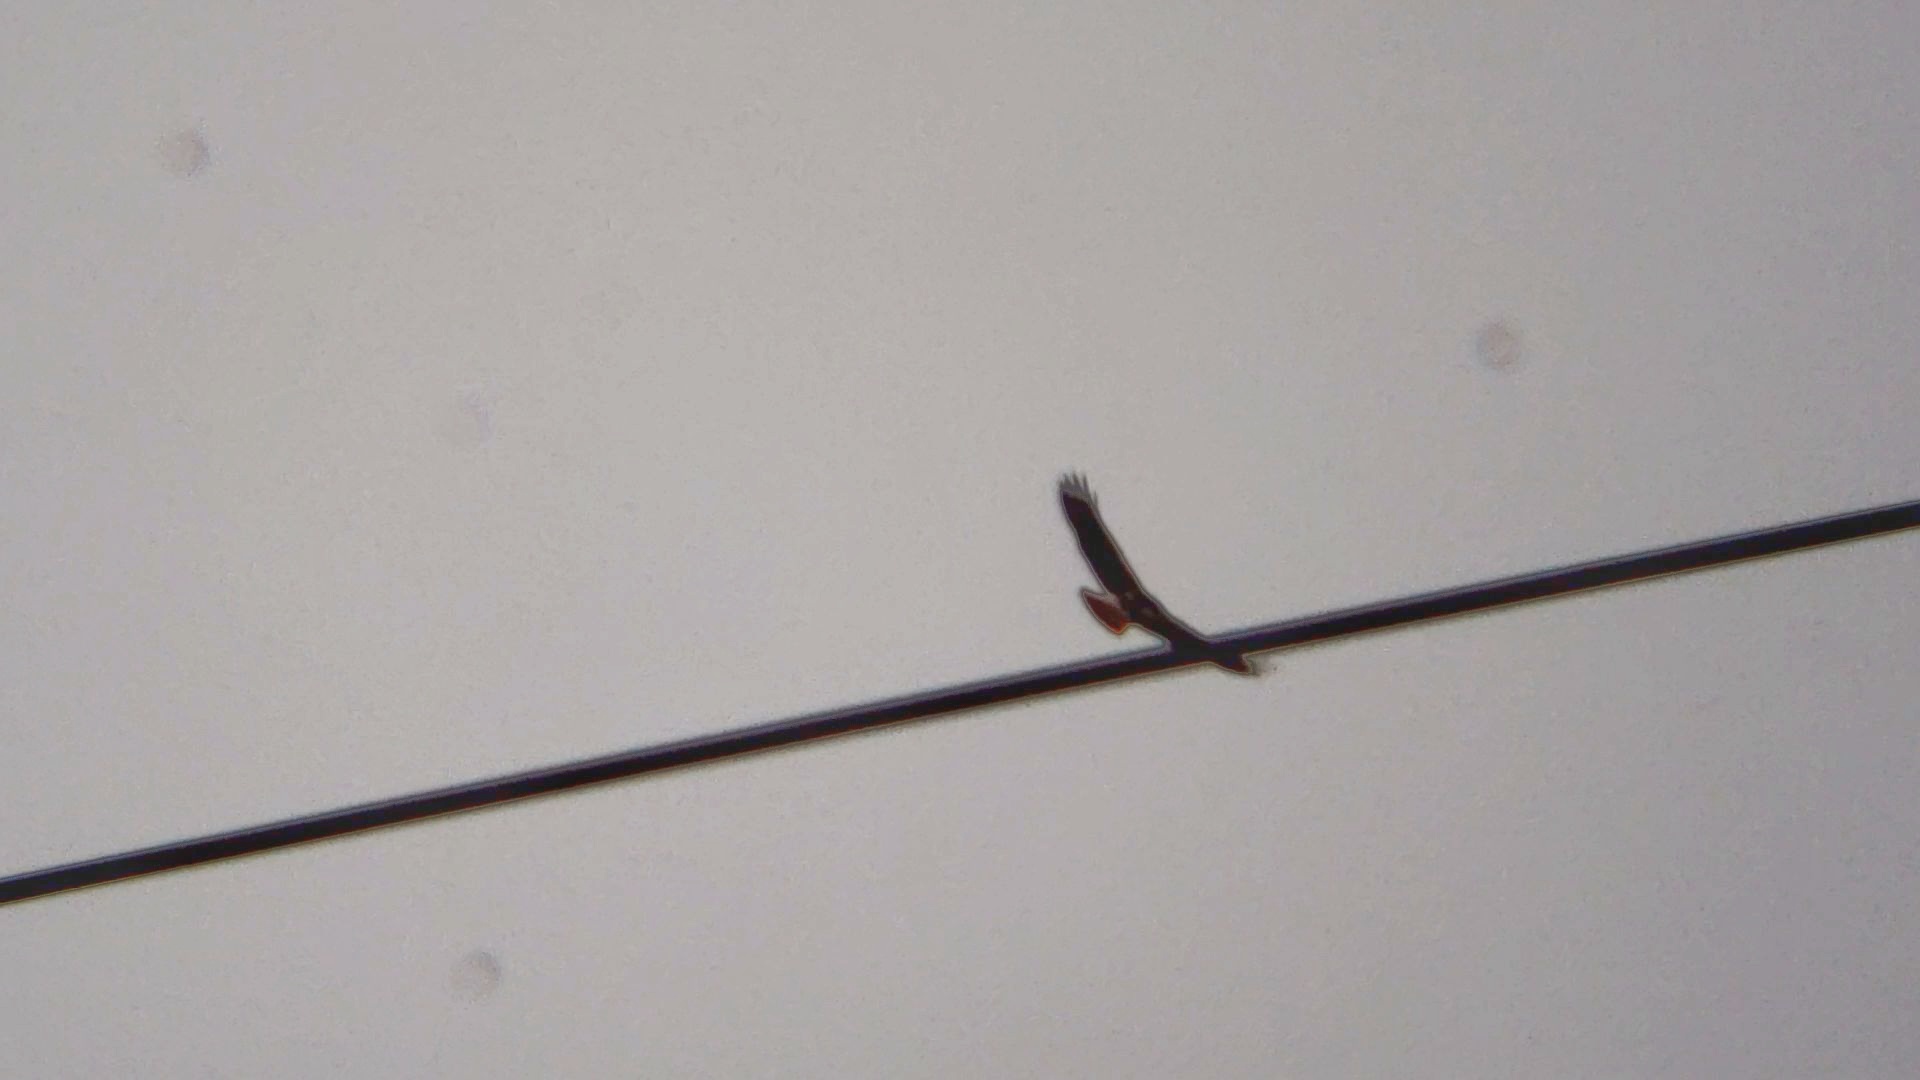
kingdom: Animalia
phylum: Chordata
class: Aves
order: Accipitriformes
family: Accipitridae
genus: Buteo
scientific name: Buteo jamaicensis
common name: Red-tailed hawk
